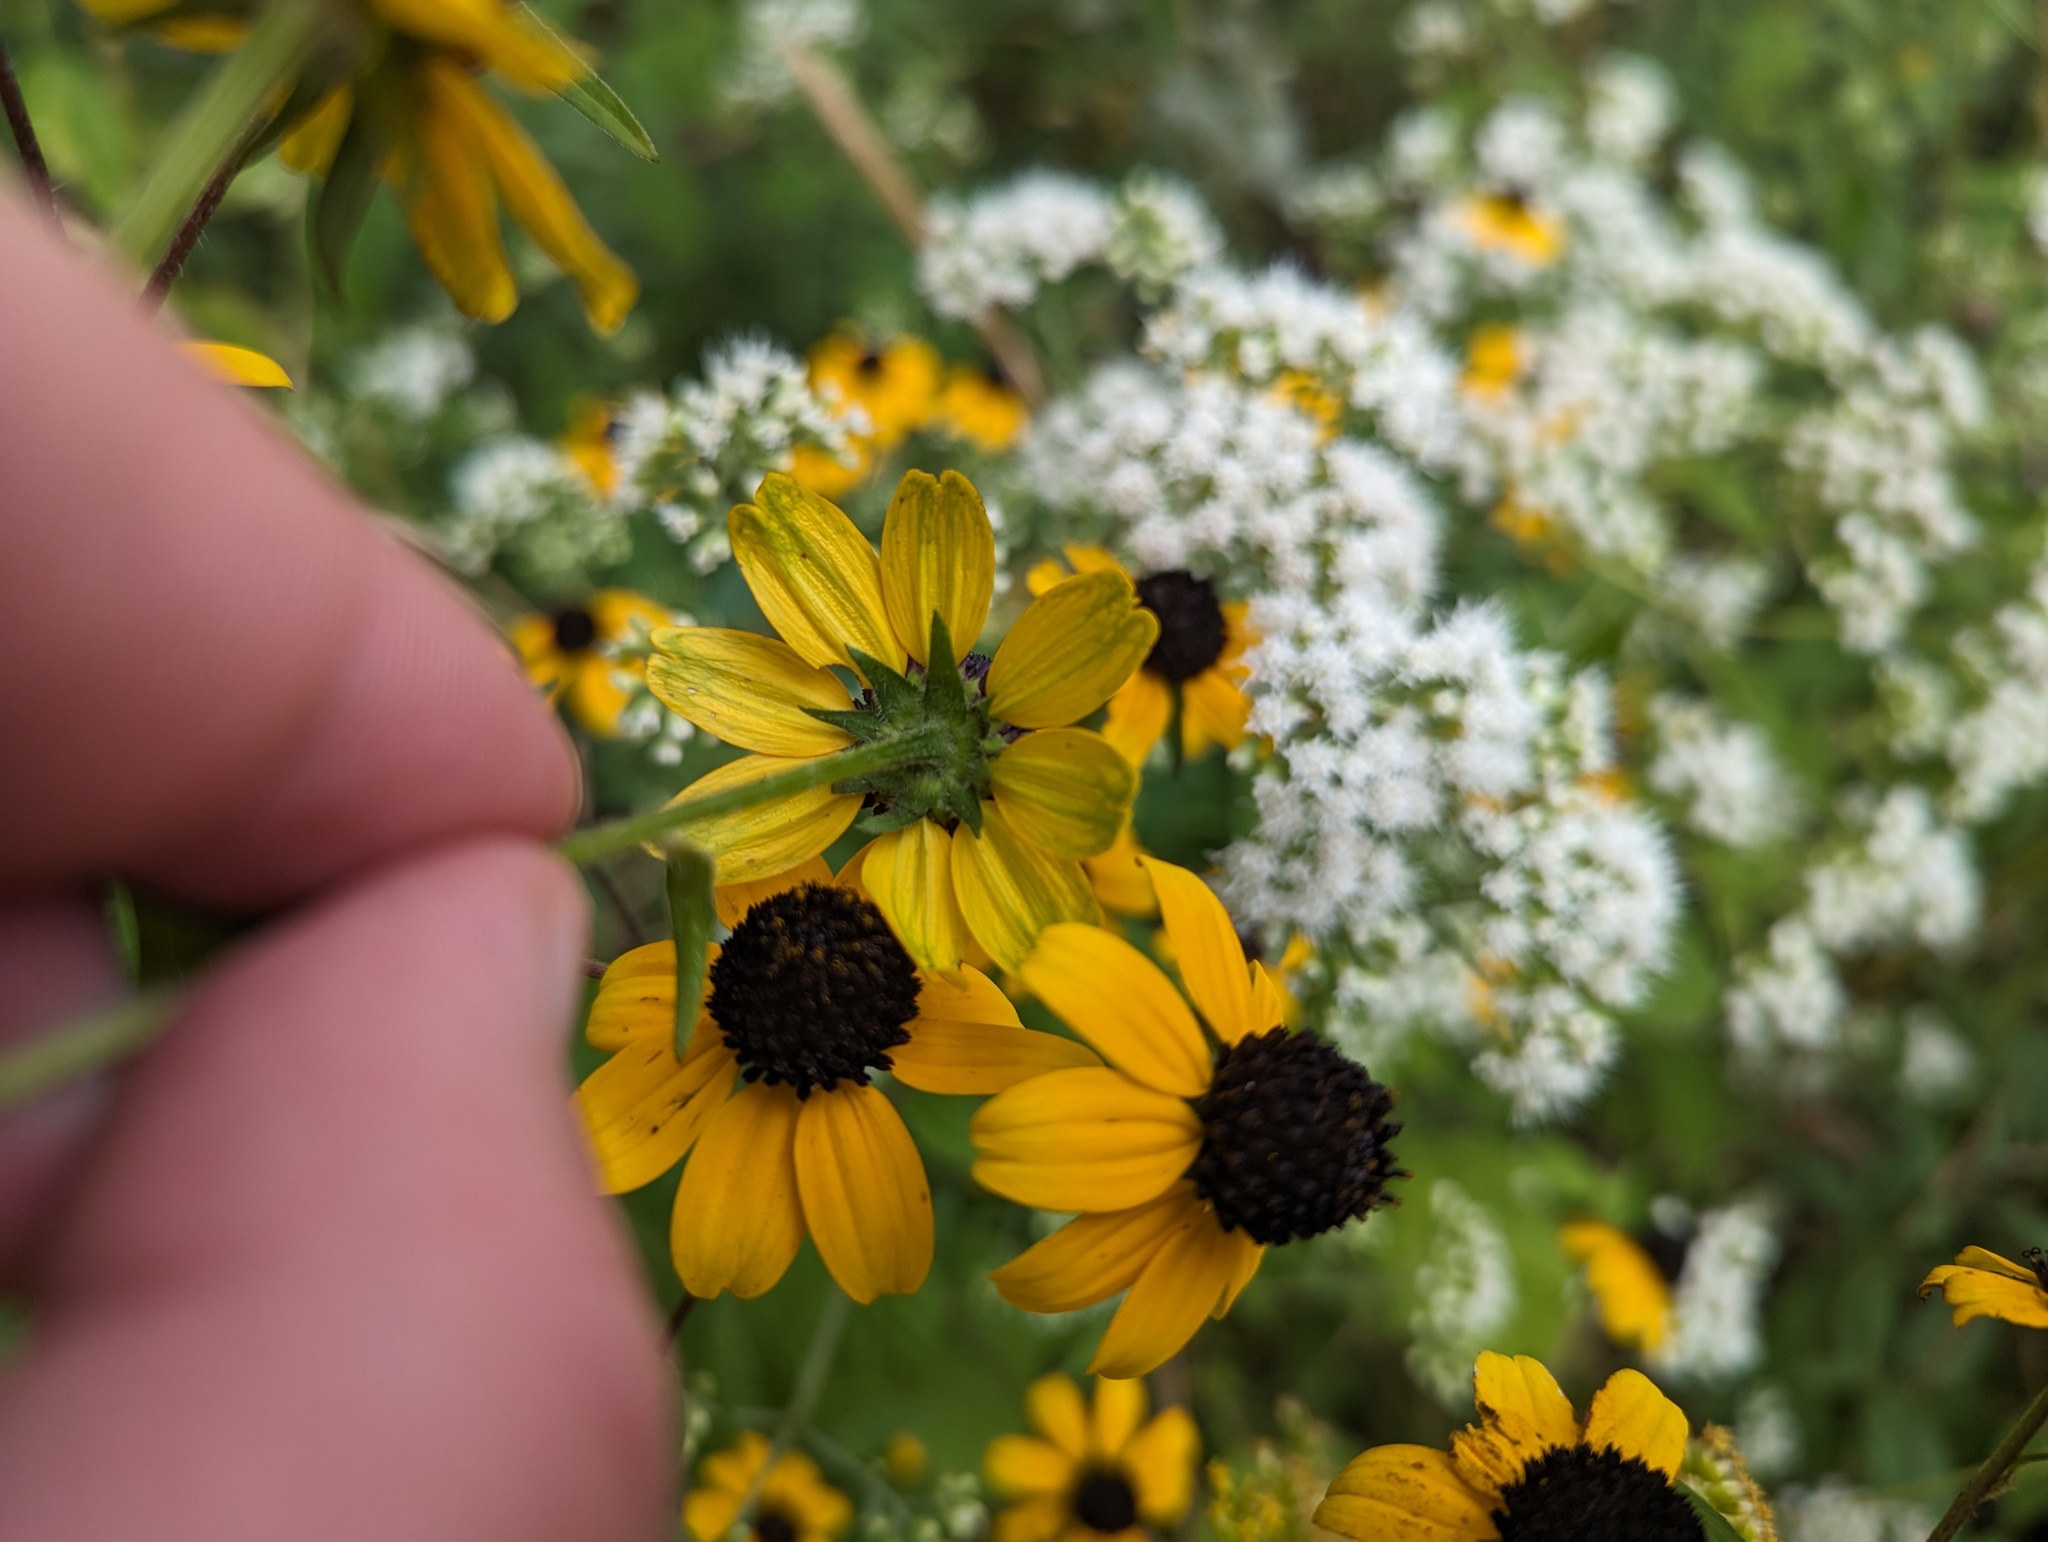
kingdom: Plantae
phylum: Tracheophyta
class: Magnoliopsida
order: Asterales
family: Asteraceae
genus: Rudbeckia
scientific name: Rudbeckia triloba
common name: Thin-leaved coneflower
